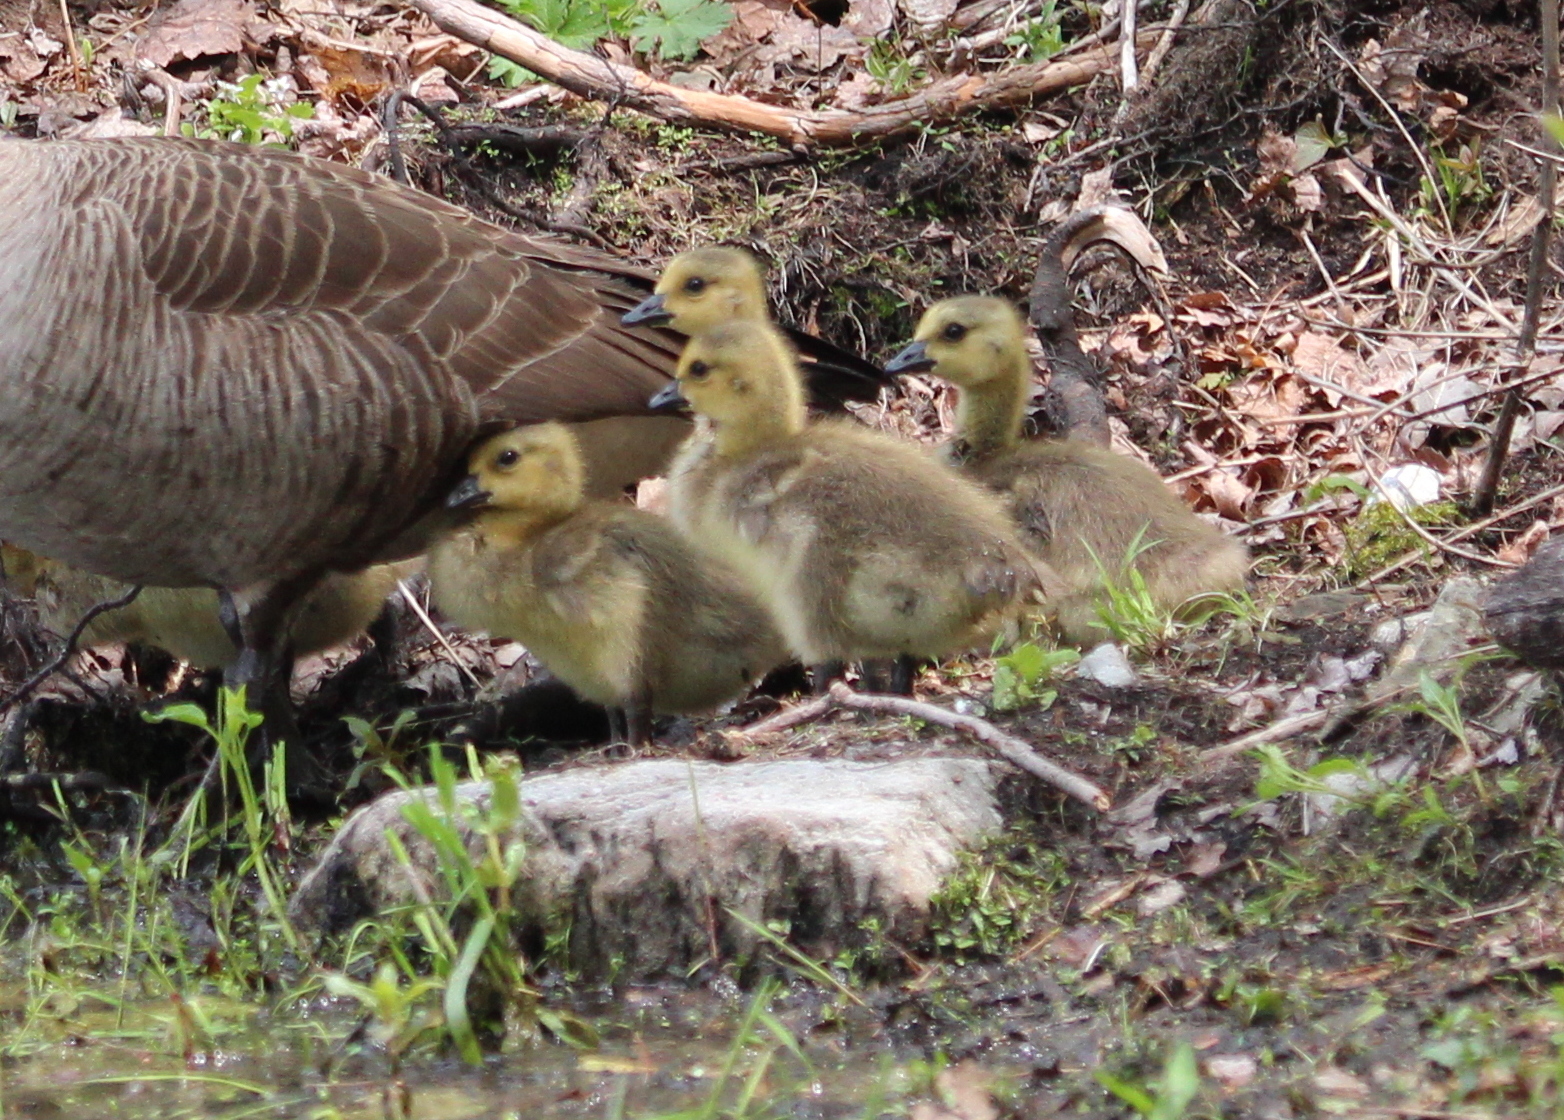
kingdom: Animalia
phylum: Chordata
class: Aves
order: Anseriformes
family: Anatidae
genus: Branta
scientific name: Branta canadensis
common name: Canada goose
